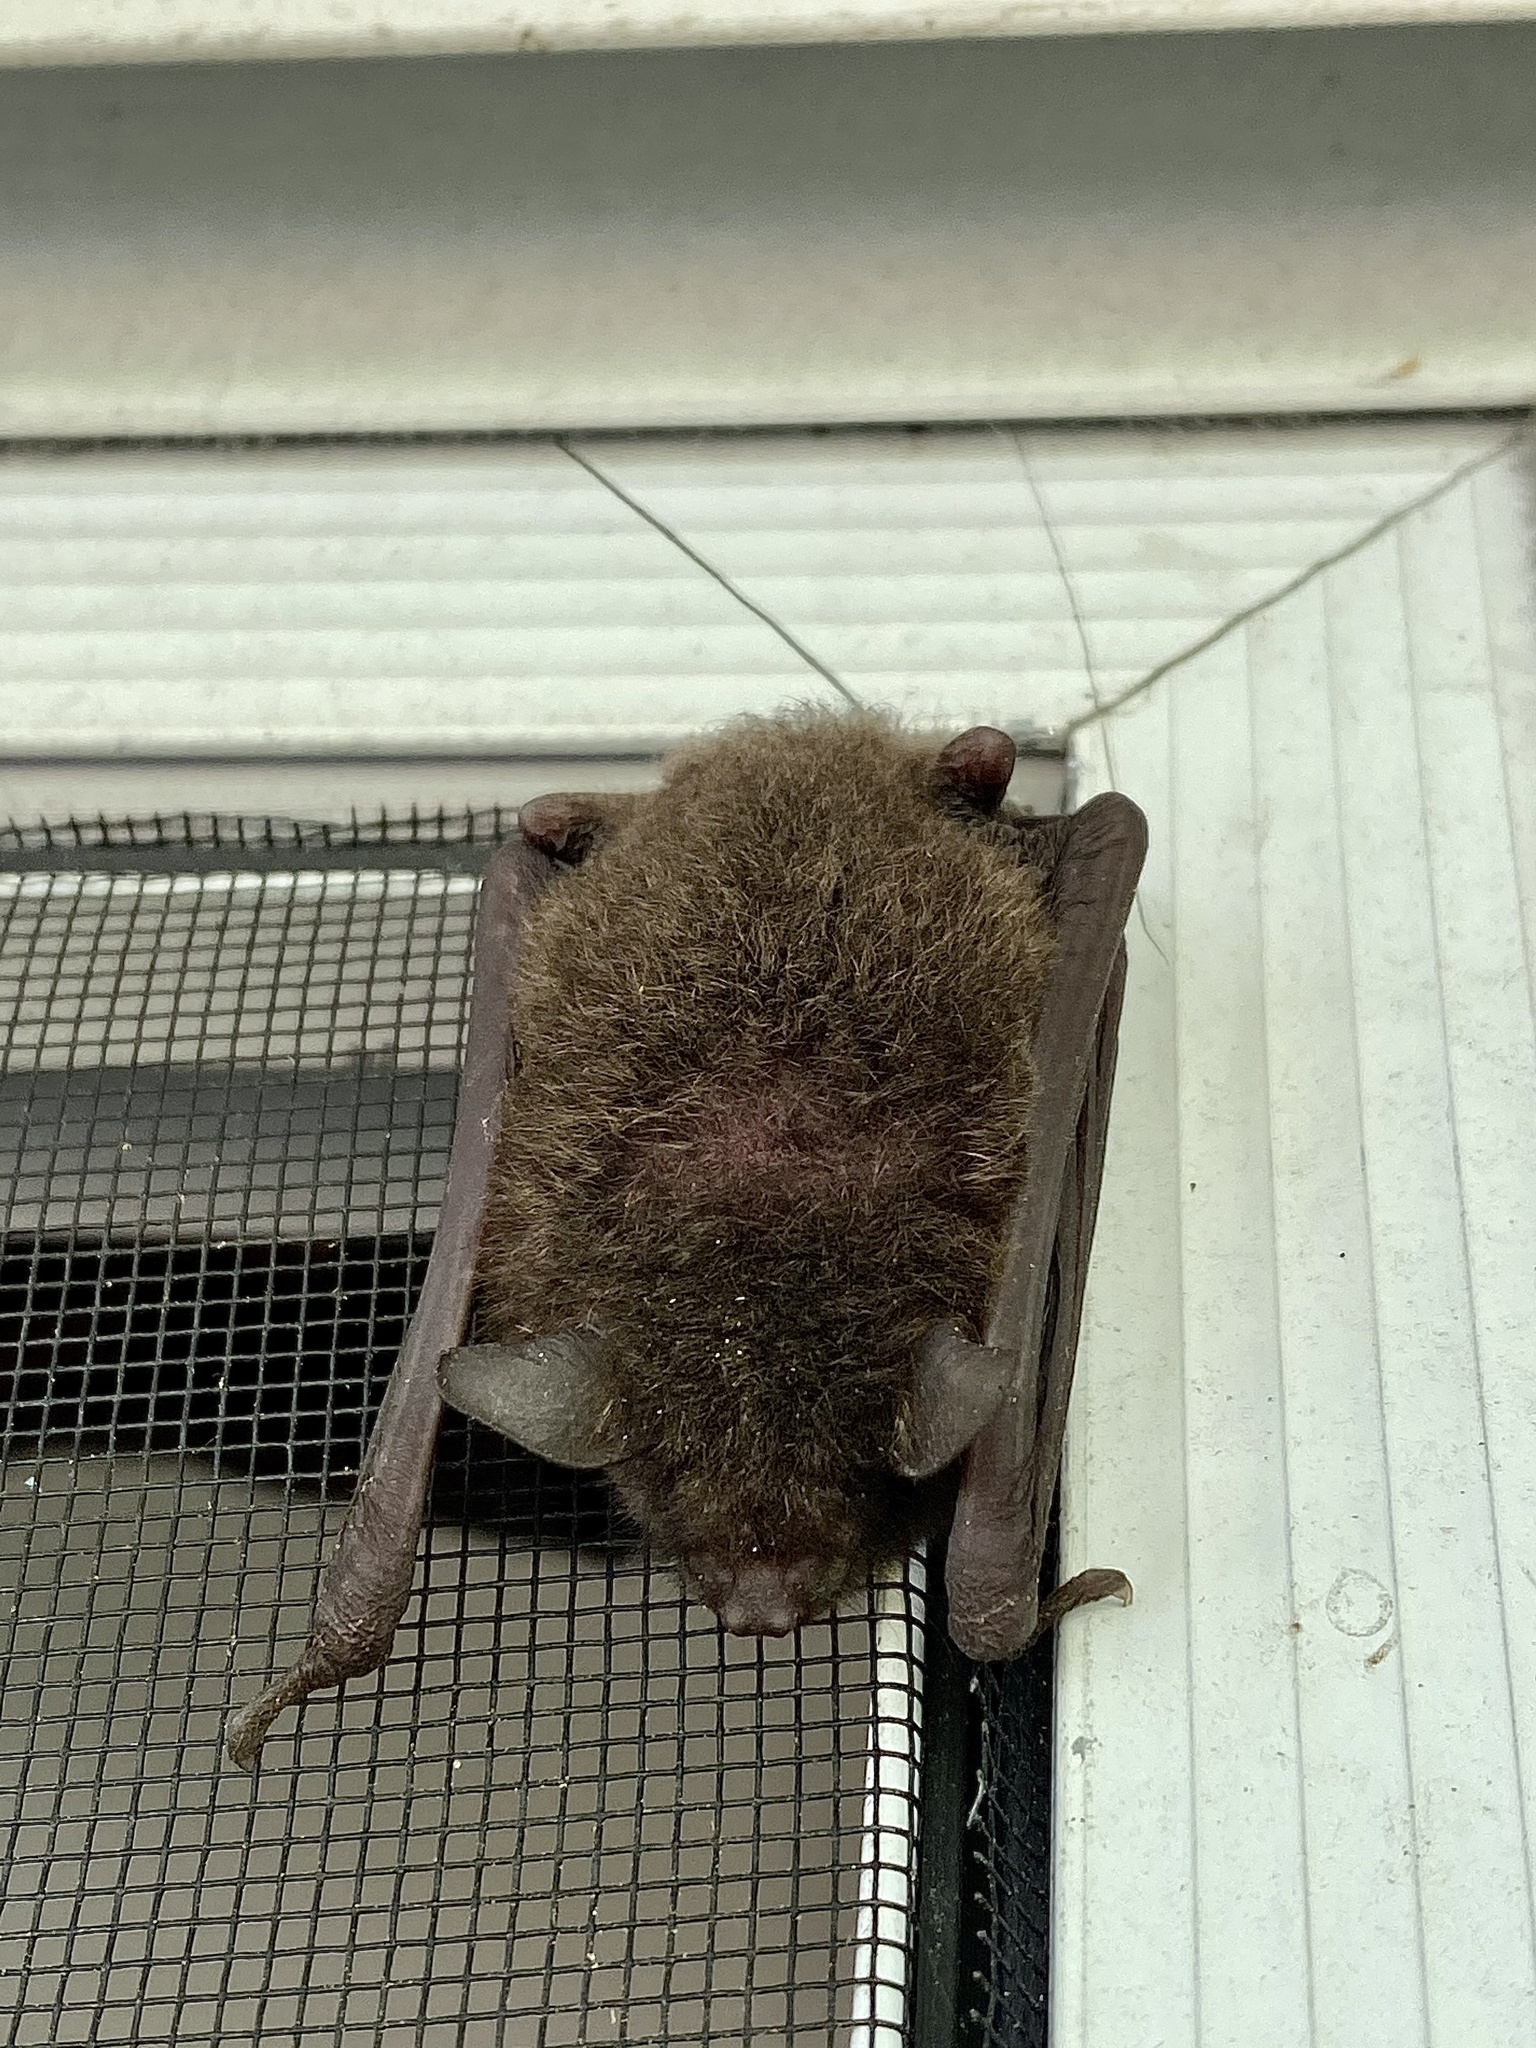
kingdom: Animalia
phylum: Chordata
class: Mammalia
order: Chiroptera
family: Vespertilionidae
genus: Myotis
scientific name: Myotis austroriparius
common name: Southeastern myotis
